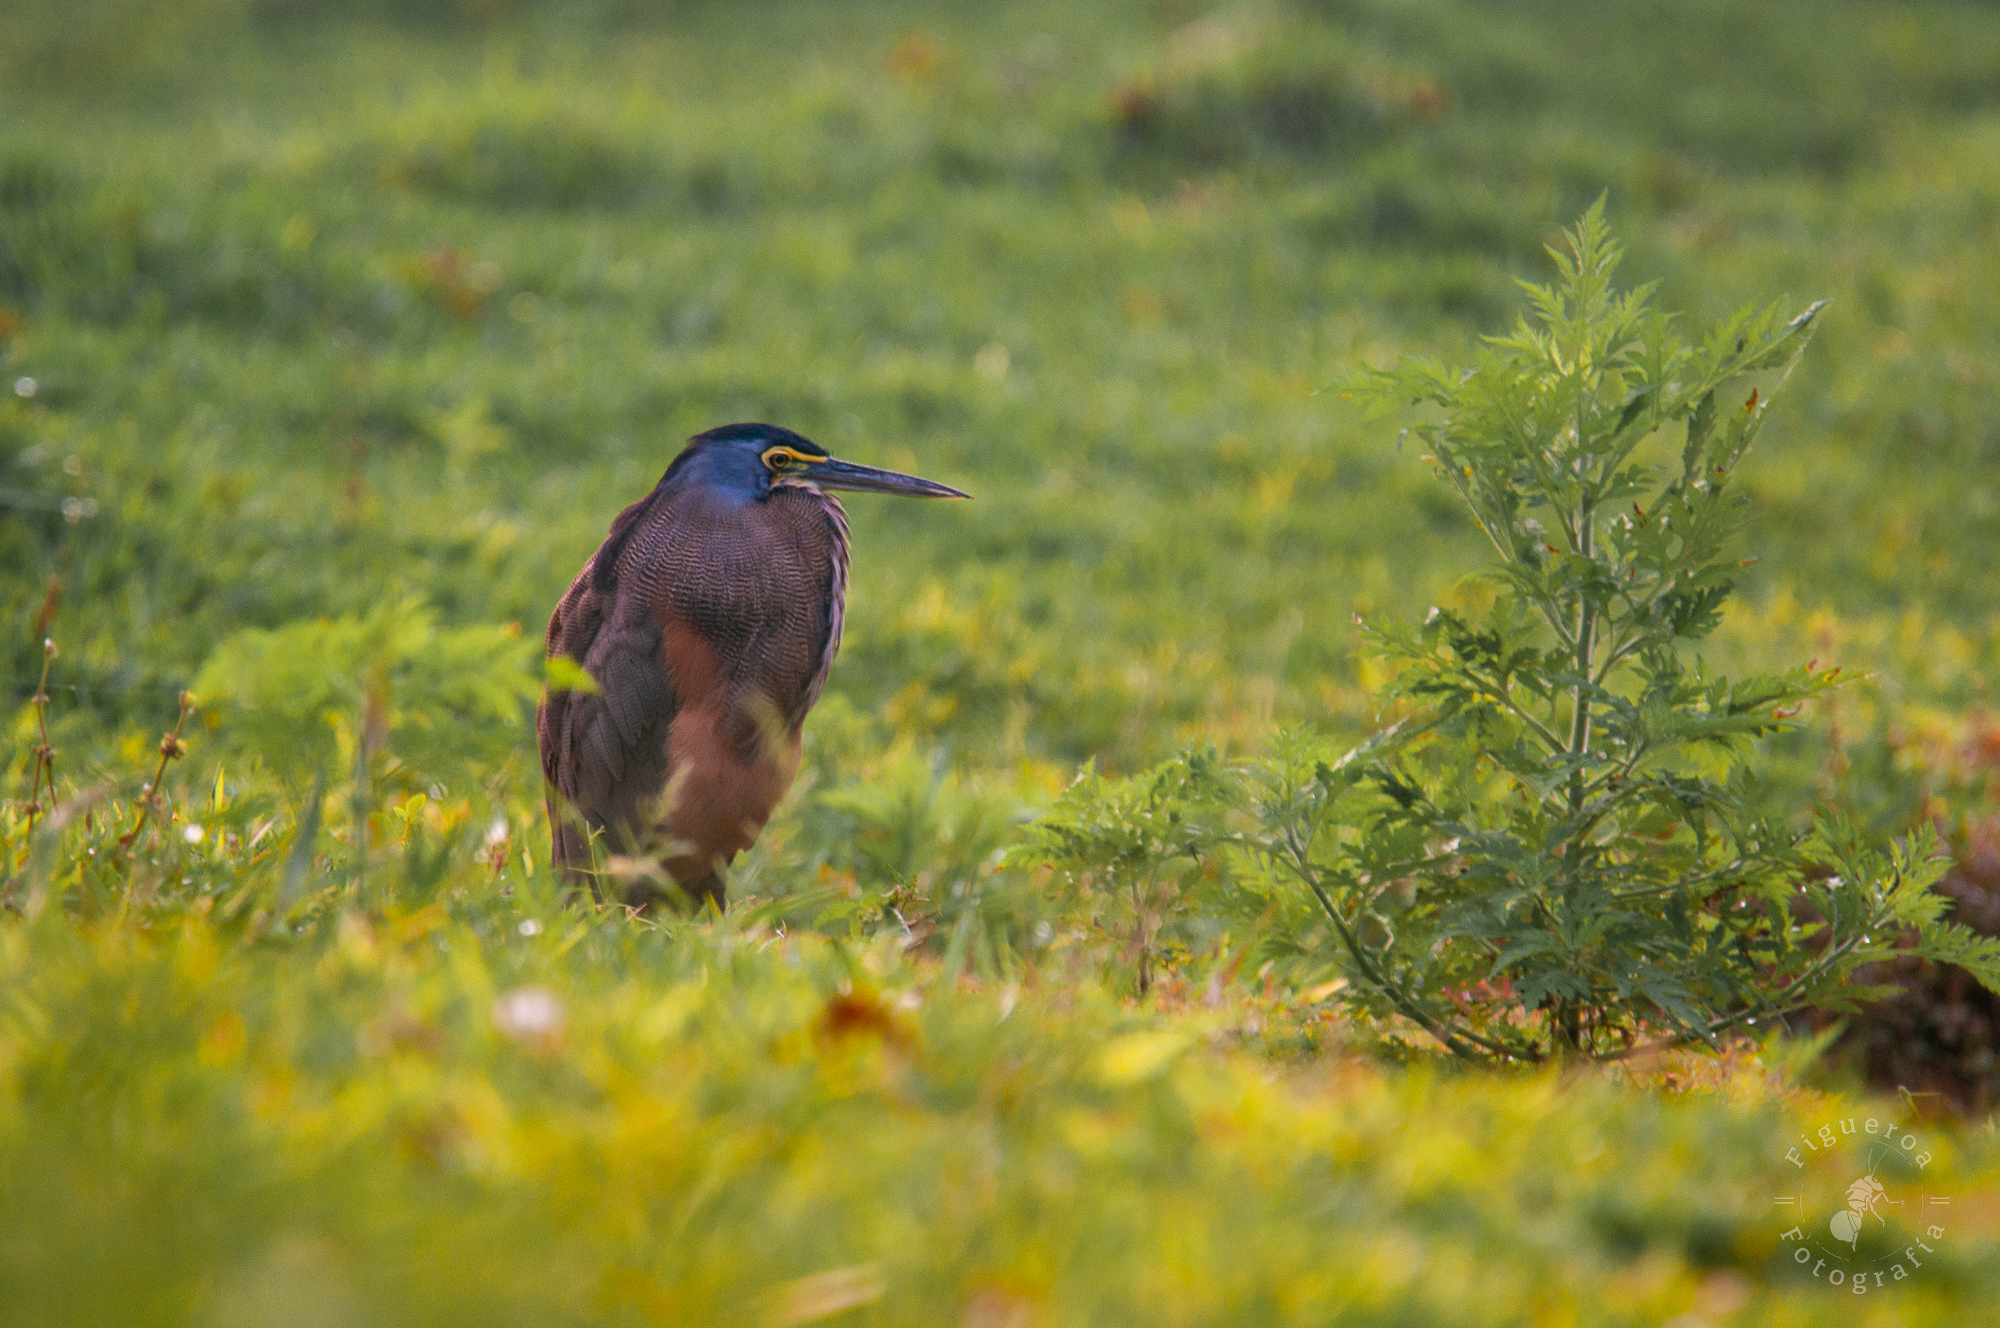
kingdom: Animalia
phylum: Chordata
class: Aves
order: Pelecaniformes
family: Ardeidae
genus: Tigrisoma
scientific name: Tigrisoma mexicanum
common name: Bare-throated tiger-heron
